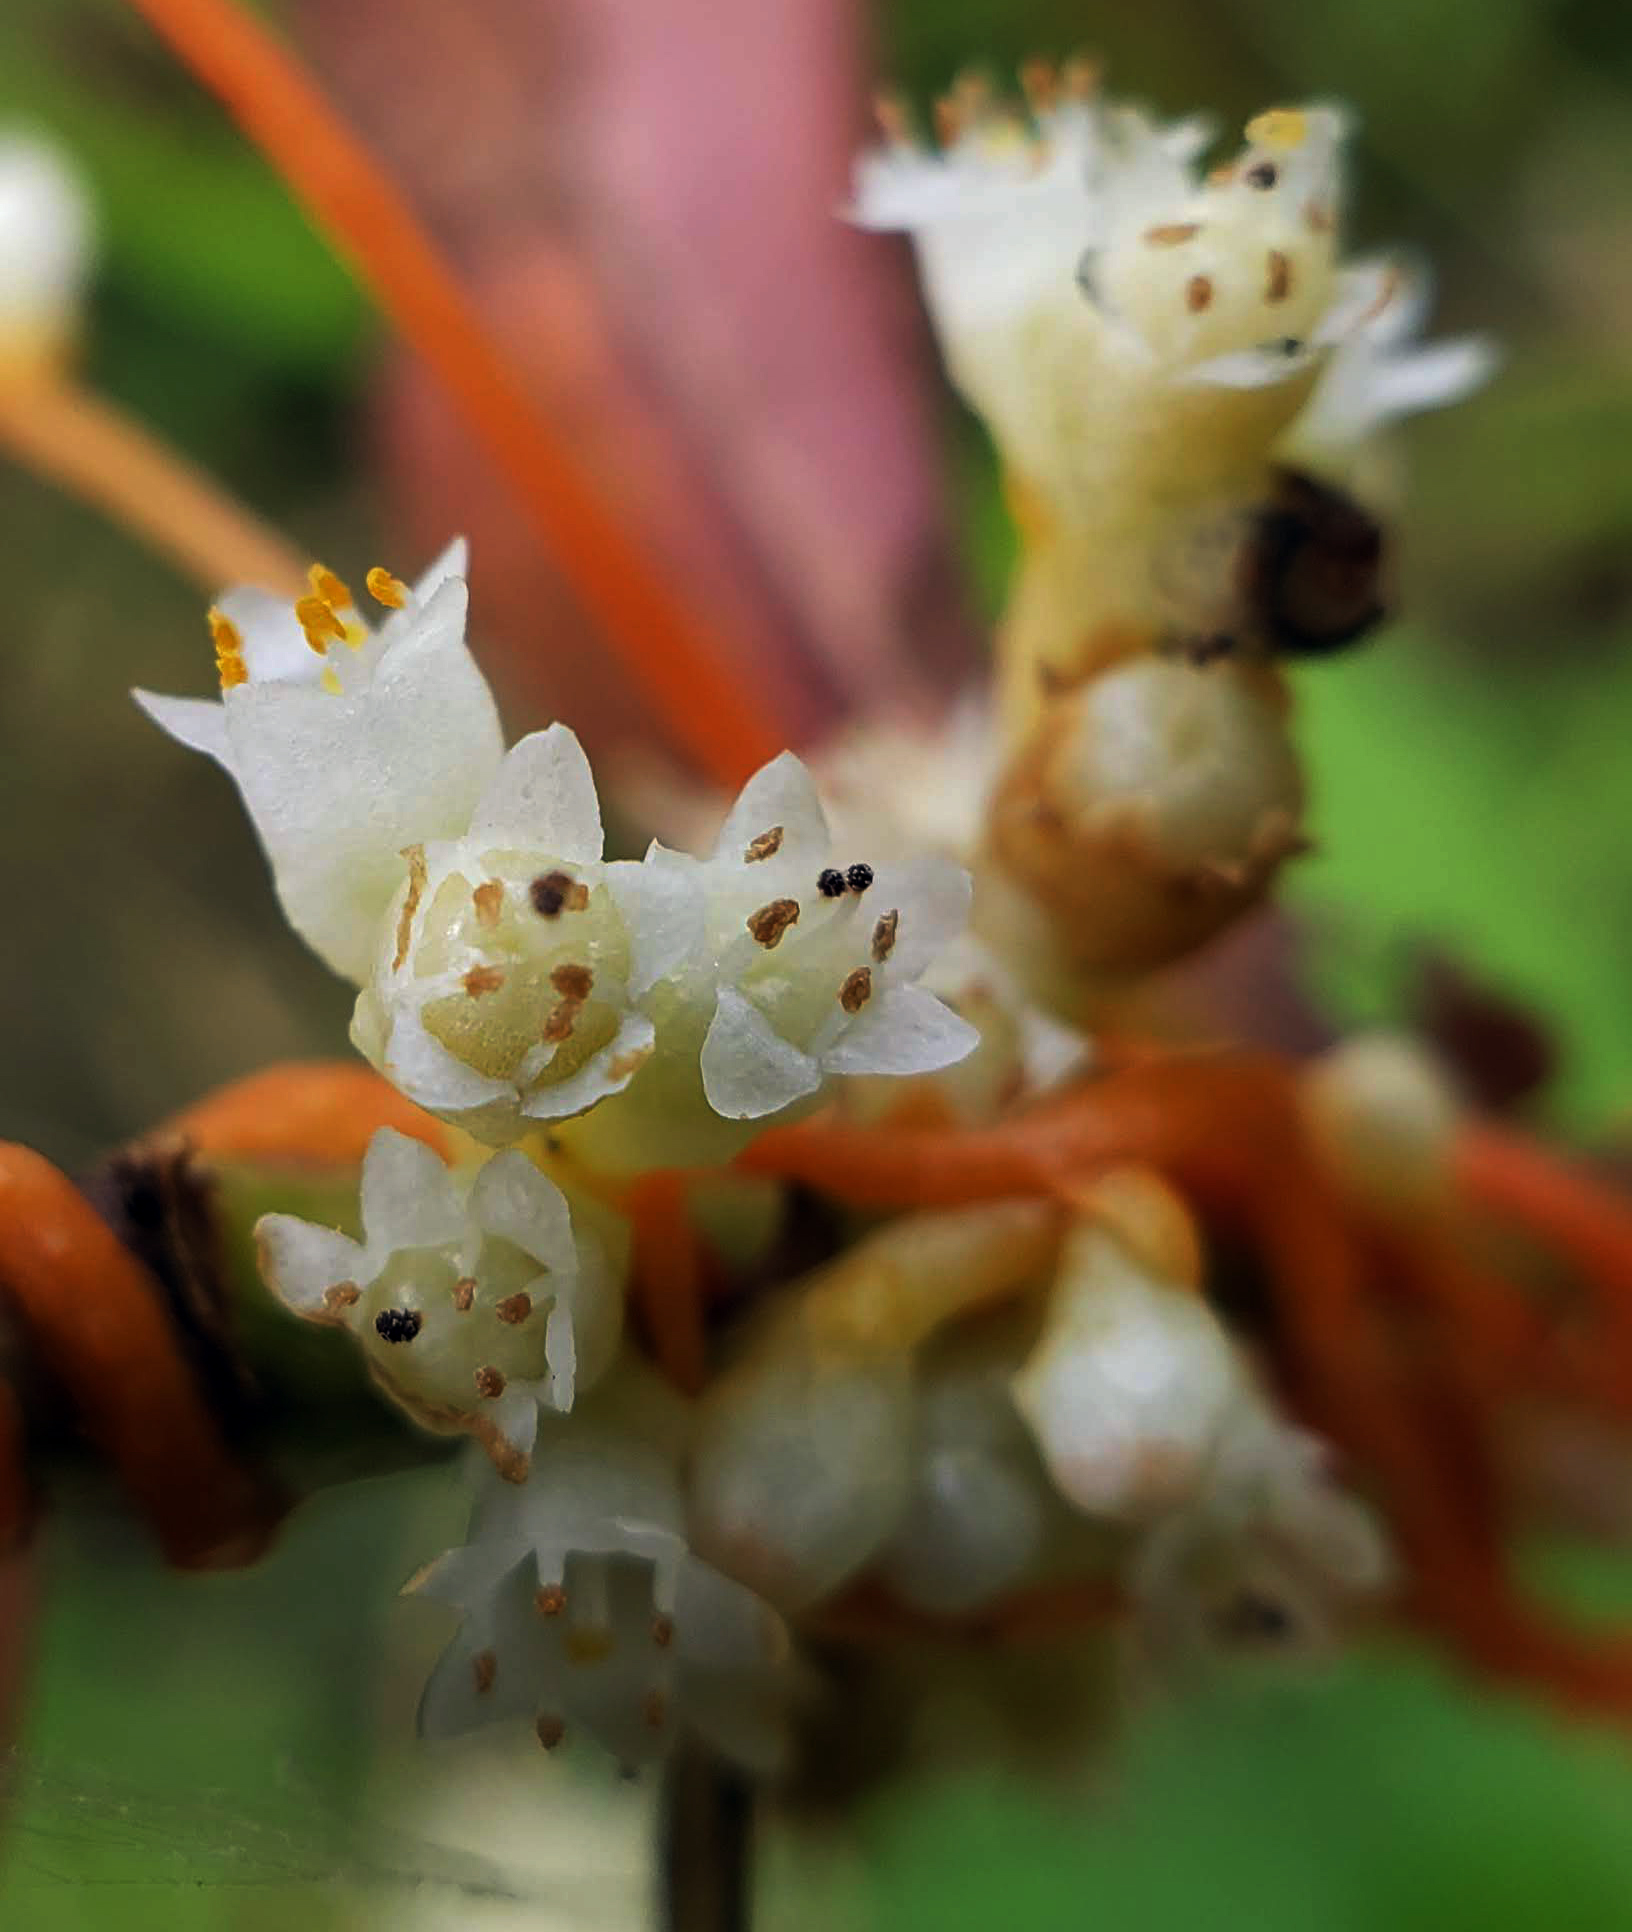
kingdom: Plantae
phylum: Tracheophyta
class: Magnoliopsida
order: Solanales
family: Convolvulaceae
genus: Cuscuta
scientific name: Cuscuta gronovii
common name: Common dodder
